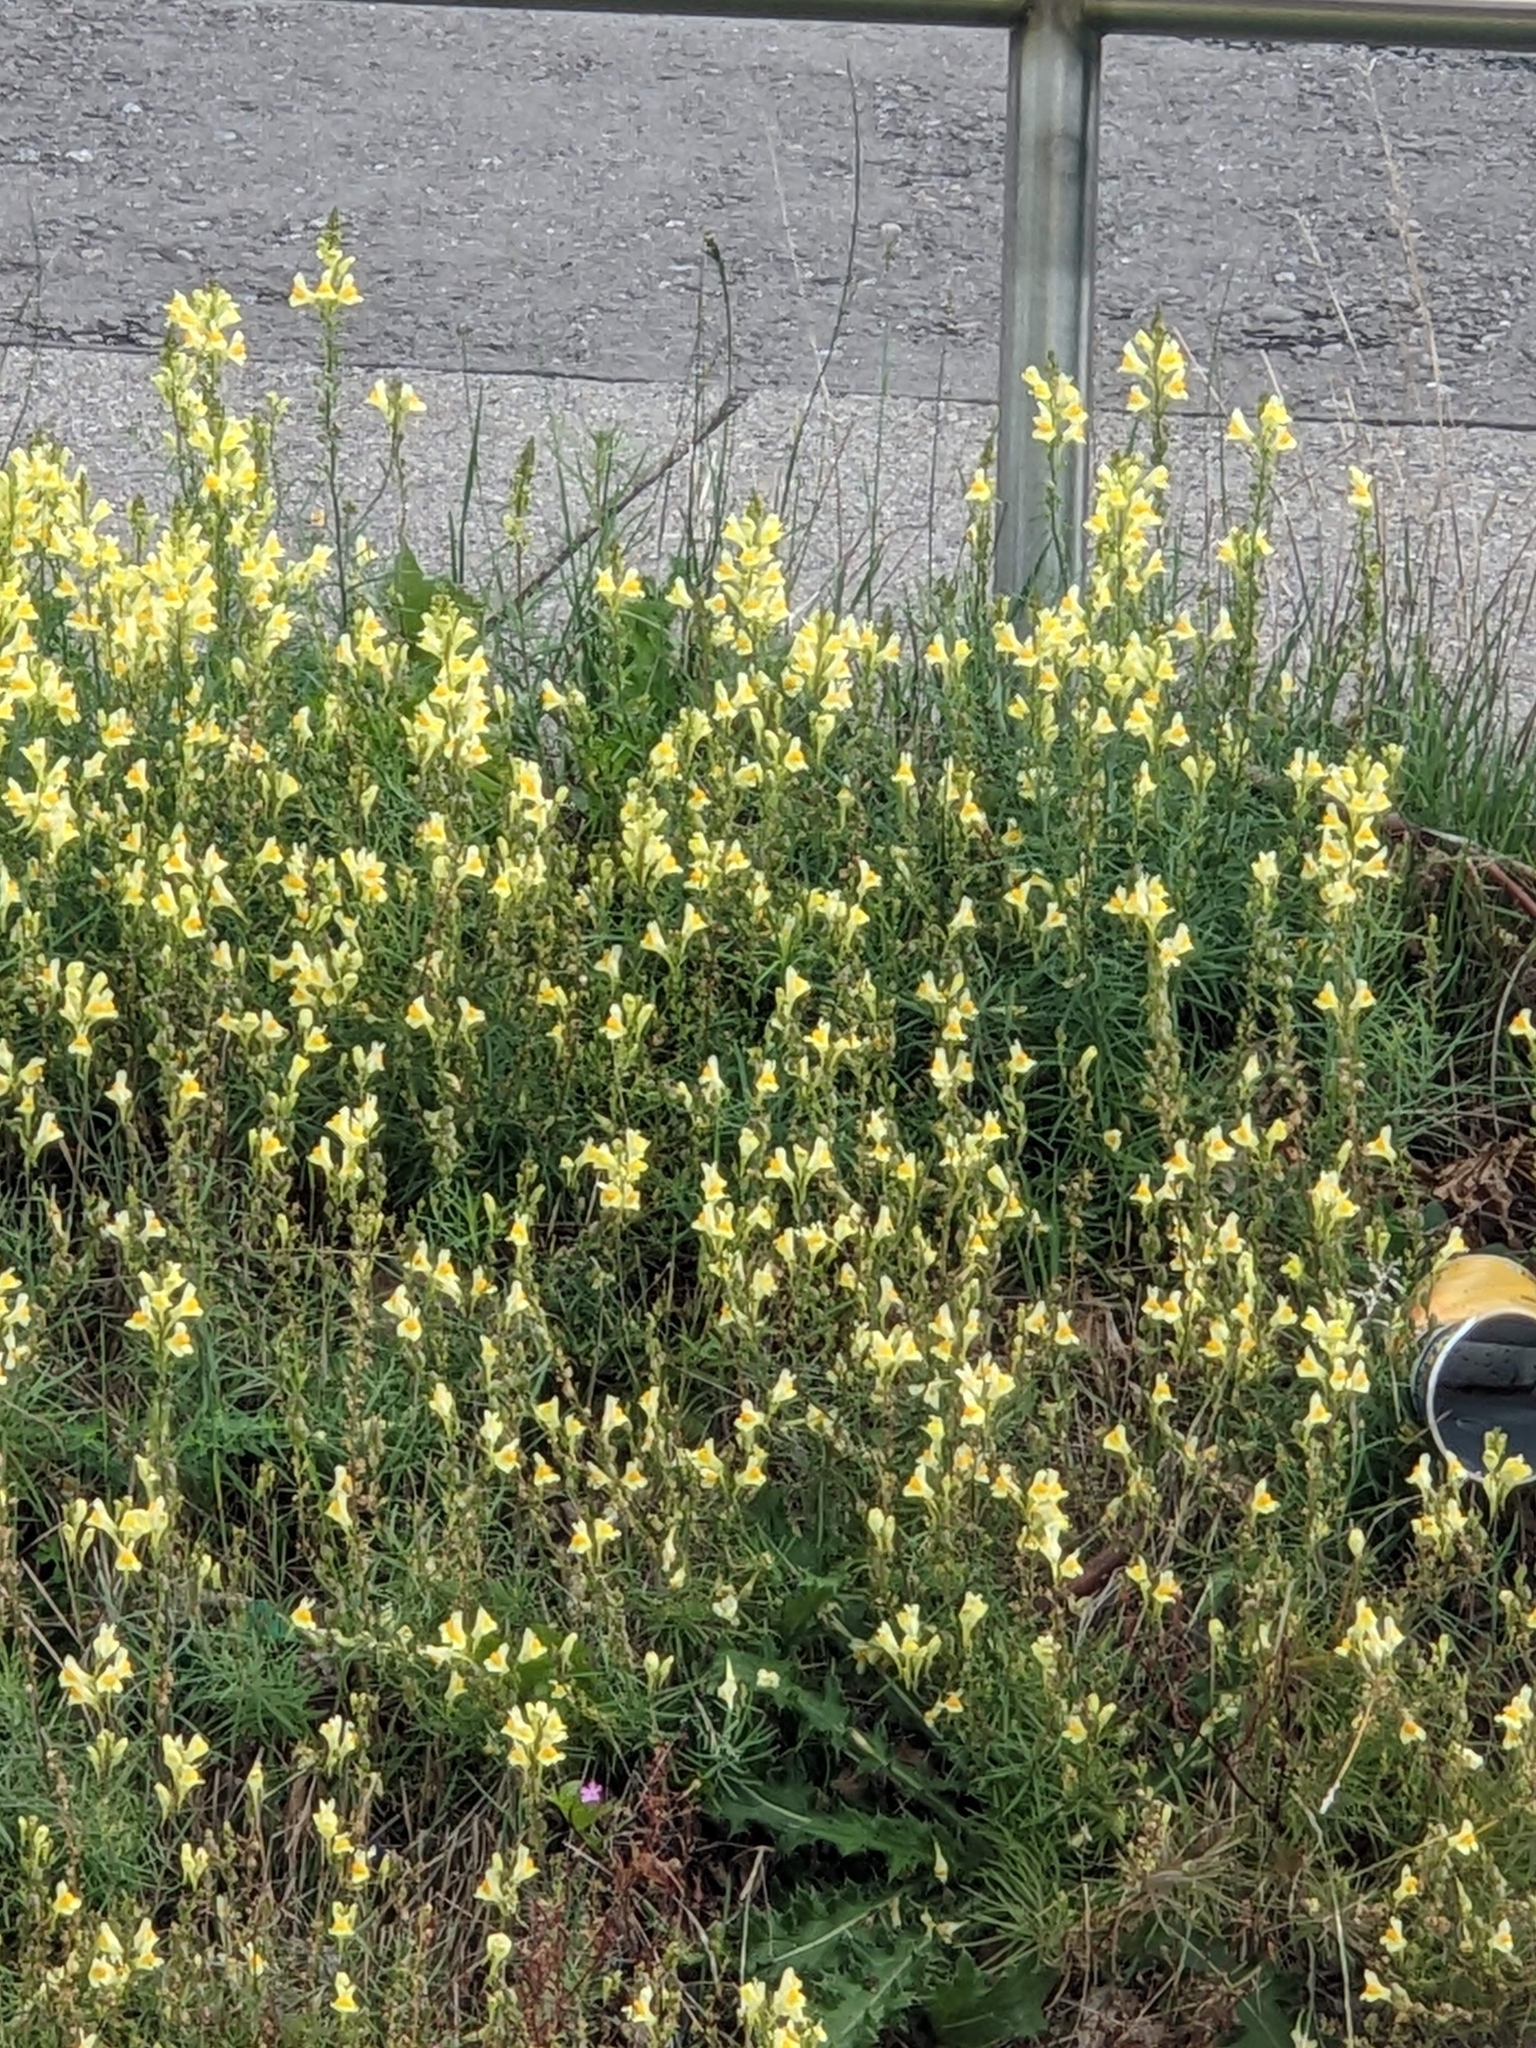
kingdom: Plantae
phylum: Tracheophyta
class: Magnoliopsida
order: Lamiales
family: Plantaginaceae
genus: Linaria
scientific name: Linaria vulgaris
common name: Butter and eggs
